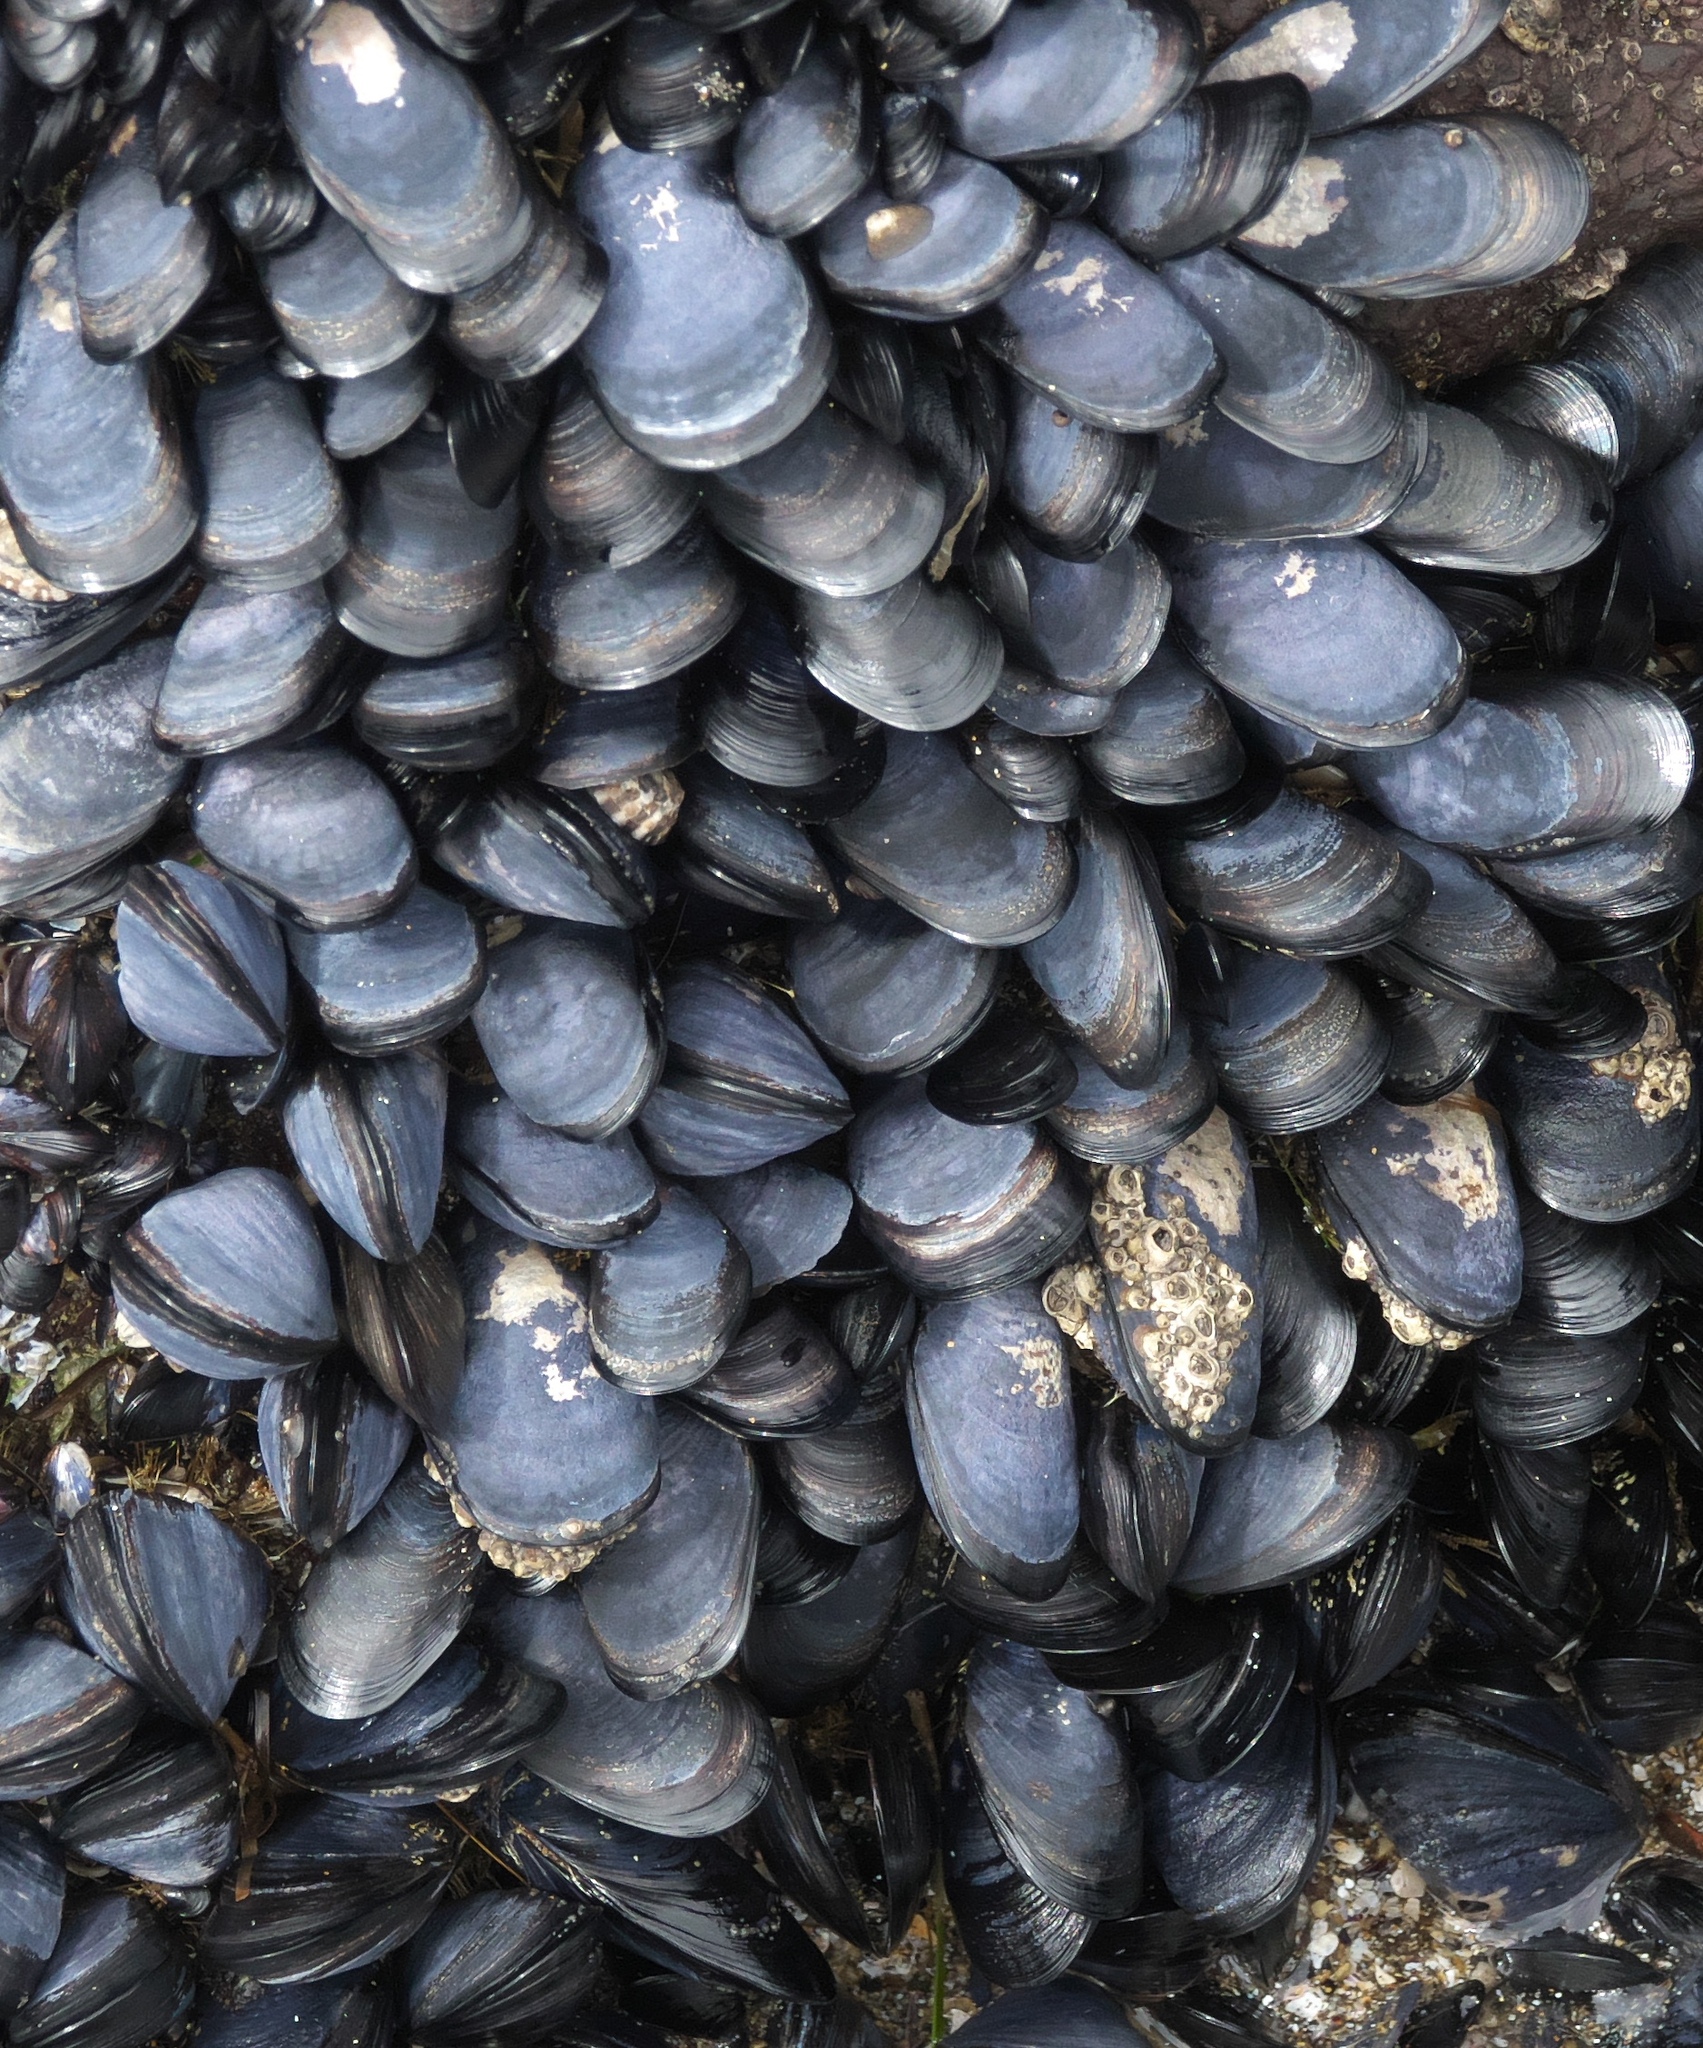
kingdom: Animalia
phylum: Mollusca
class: Bivalvia
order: Mytilida
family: Mytilidae
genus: Mytilus
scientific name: Mytilus planulatus
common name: Australian mussel
